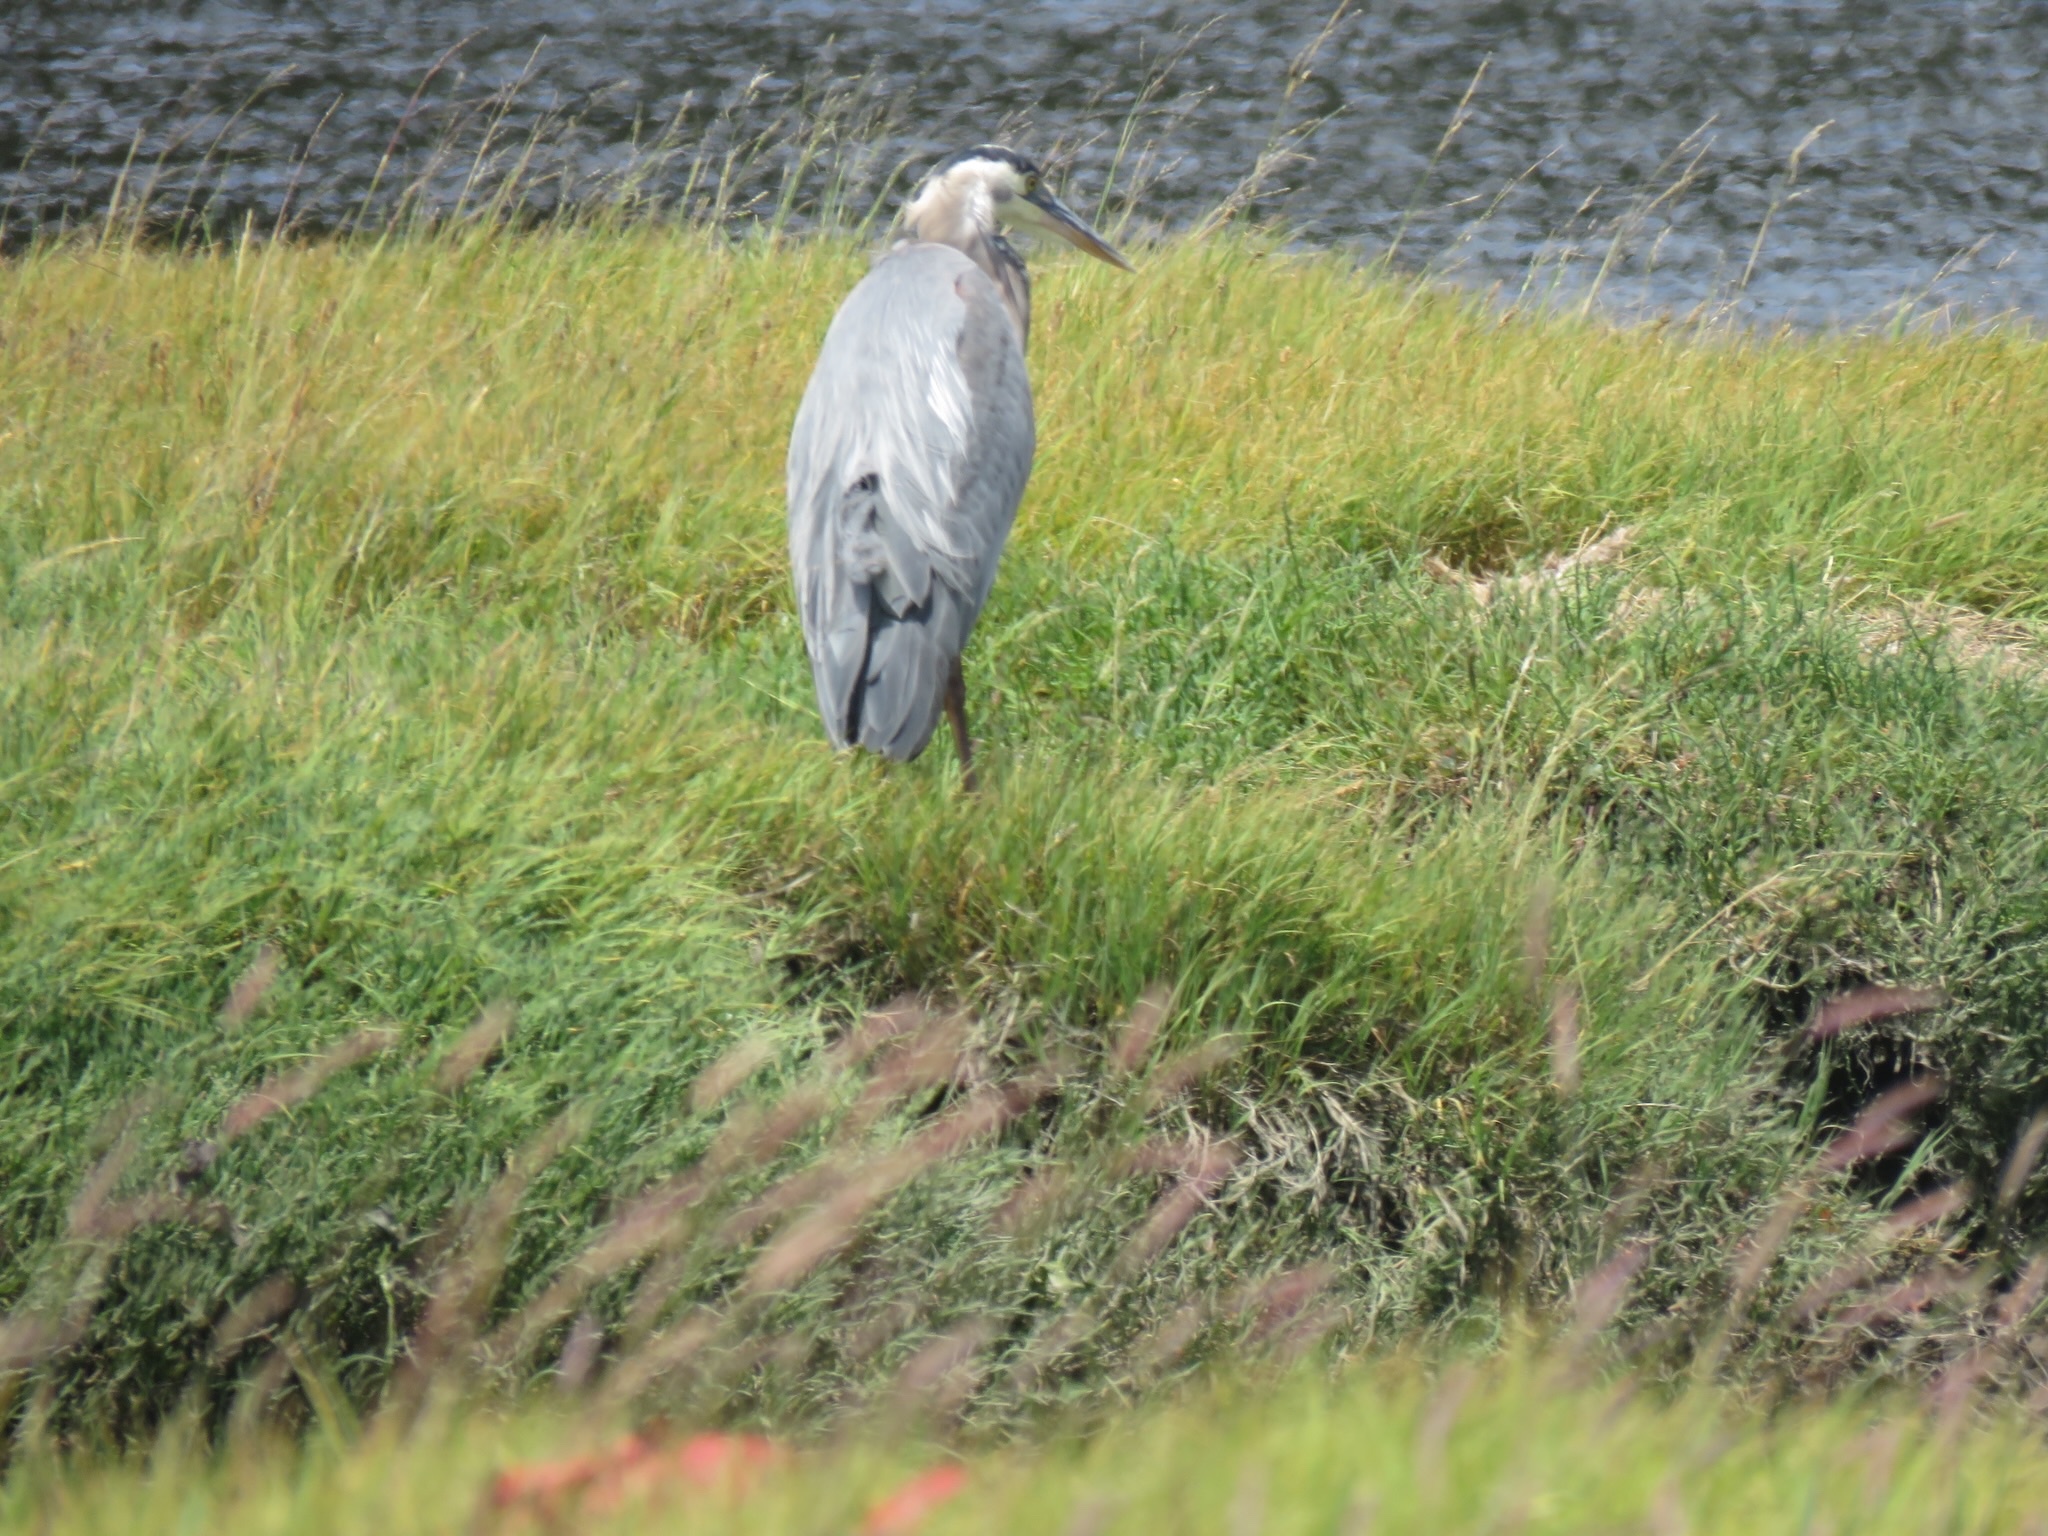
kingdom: Animalia
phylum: Chordata
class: Aves
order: Pelecaniformes
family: Ardeidae
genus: Ardea
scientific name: Ardea herodias
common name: Great blue heron
